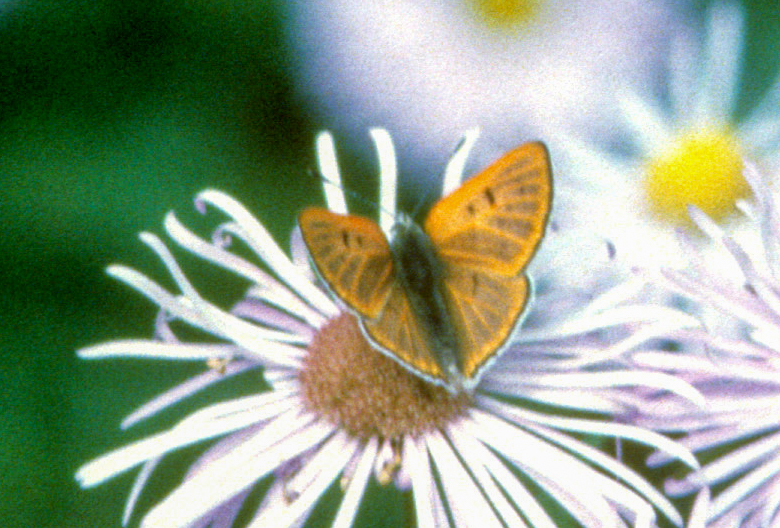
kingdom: Animalia
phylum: Arthropoda
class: Insecta
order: Lepidoptera
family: Lycaenidae
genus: Tharsalea
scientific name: Tharsalea rubidus
